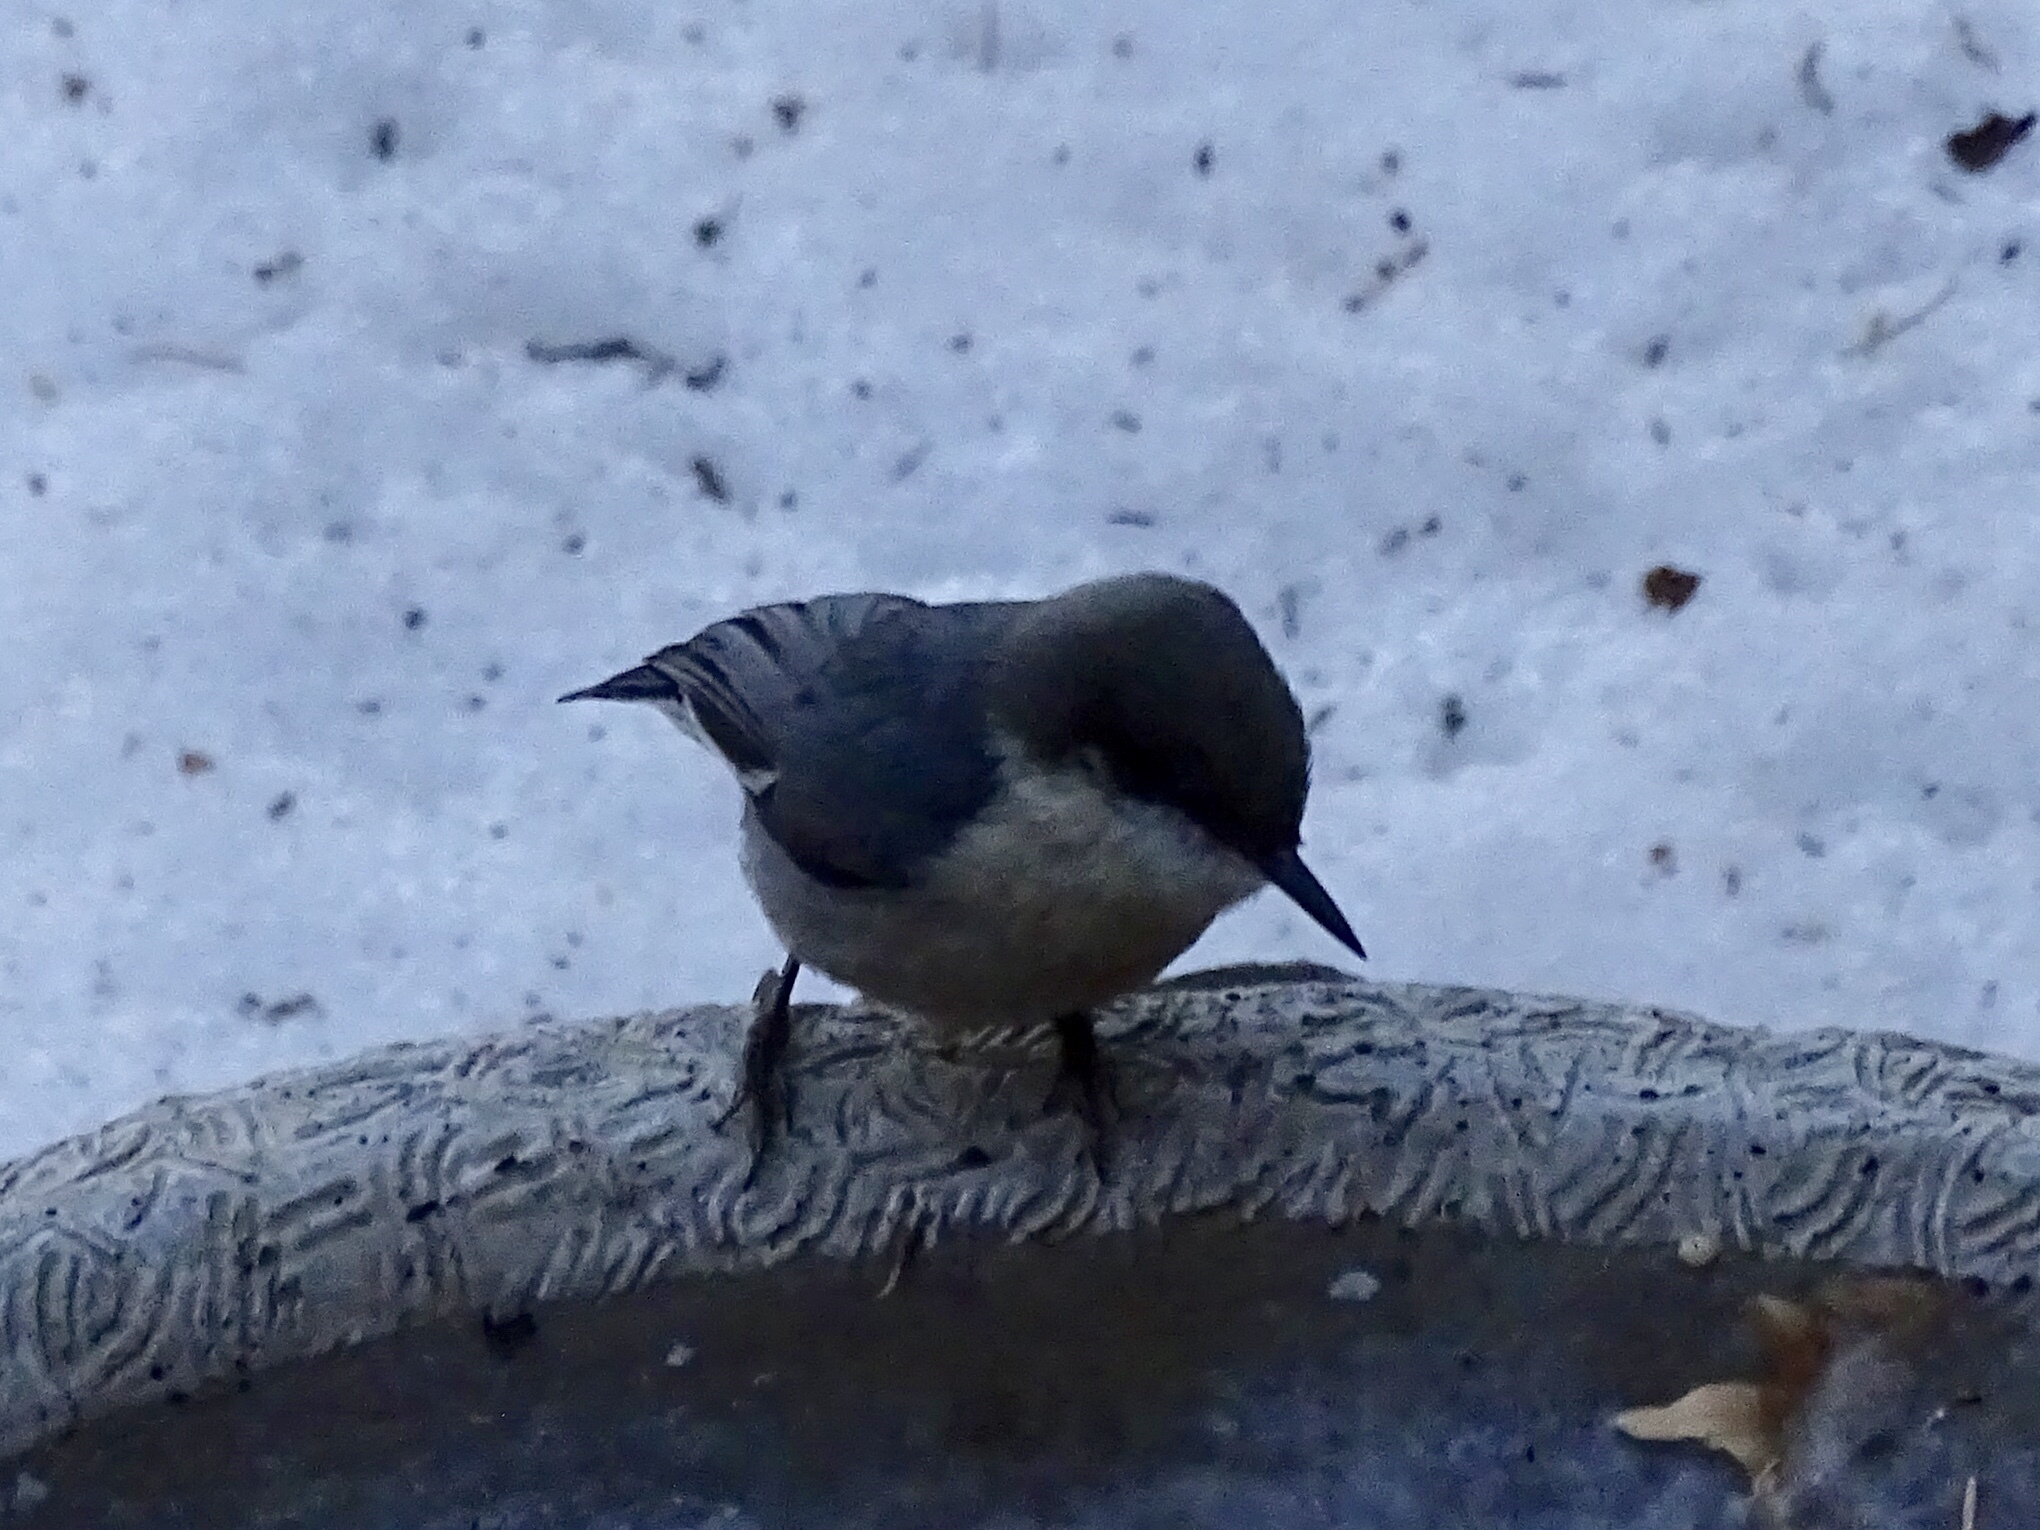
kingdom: Animalia
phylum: Chordata
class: Aves
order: Passeriformes
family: Sittidae
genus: Sitta
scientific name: Sitta pygmaea
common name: Pygmy nuthatch
